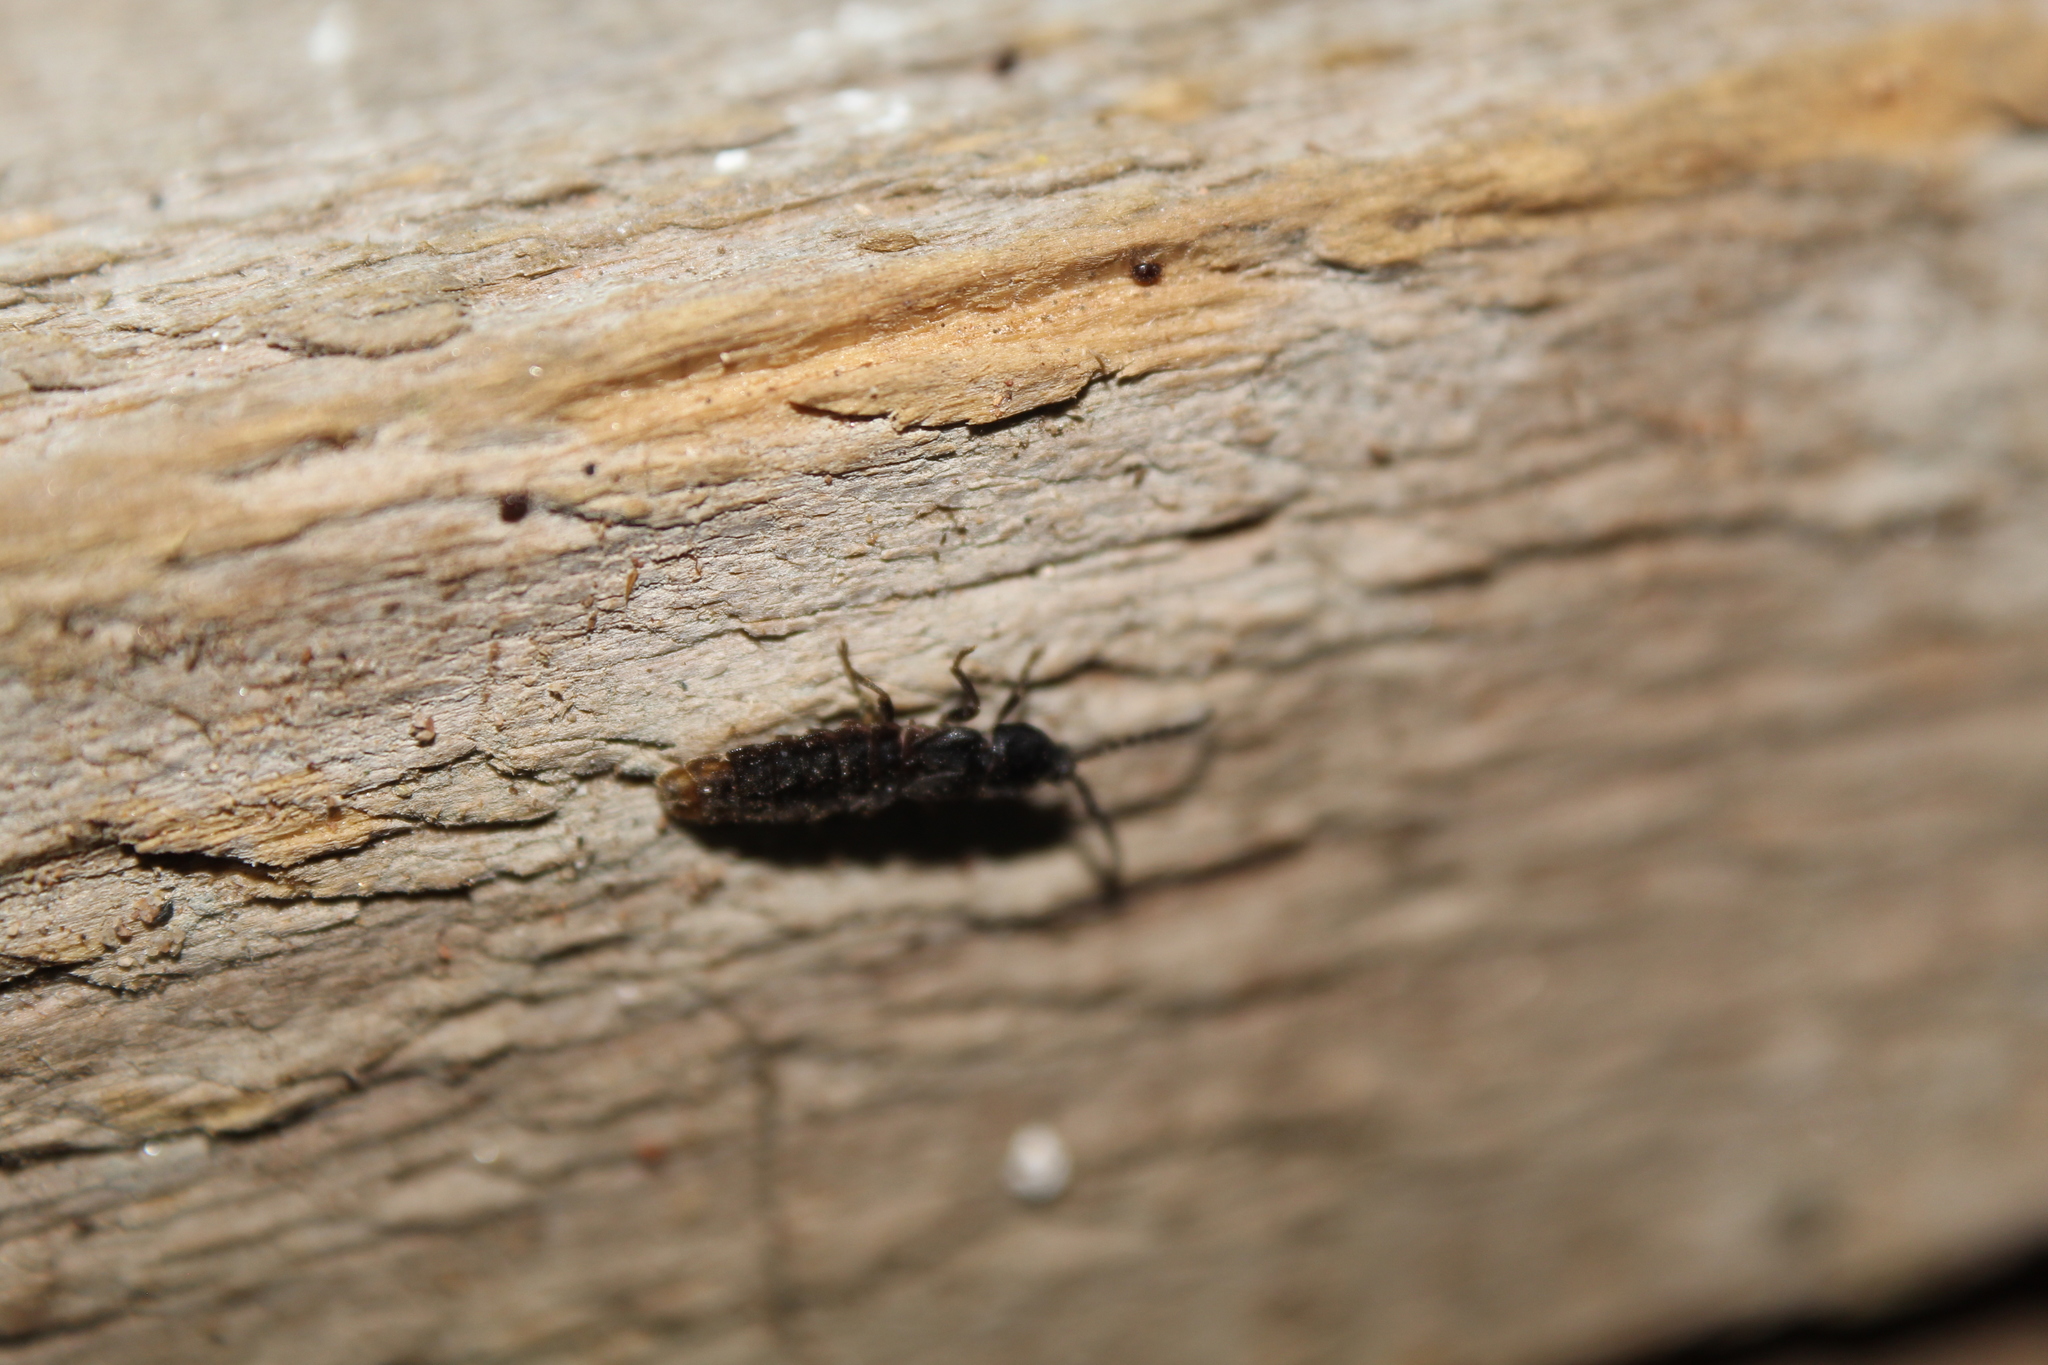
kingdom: Animalia
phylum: Arthropoda
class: Insecta
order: Coleoptera
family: Lampyridae
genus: Phosphaenus
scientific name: Phosphaenus hemipterus
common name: Short-winged firefly
